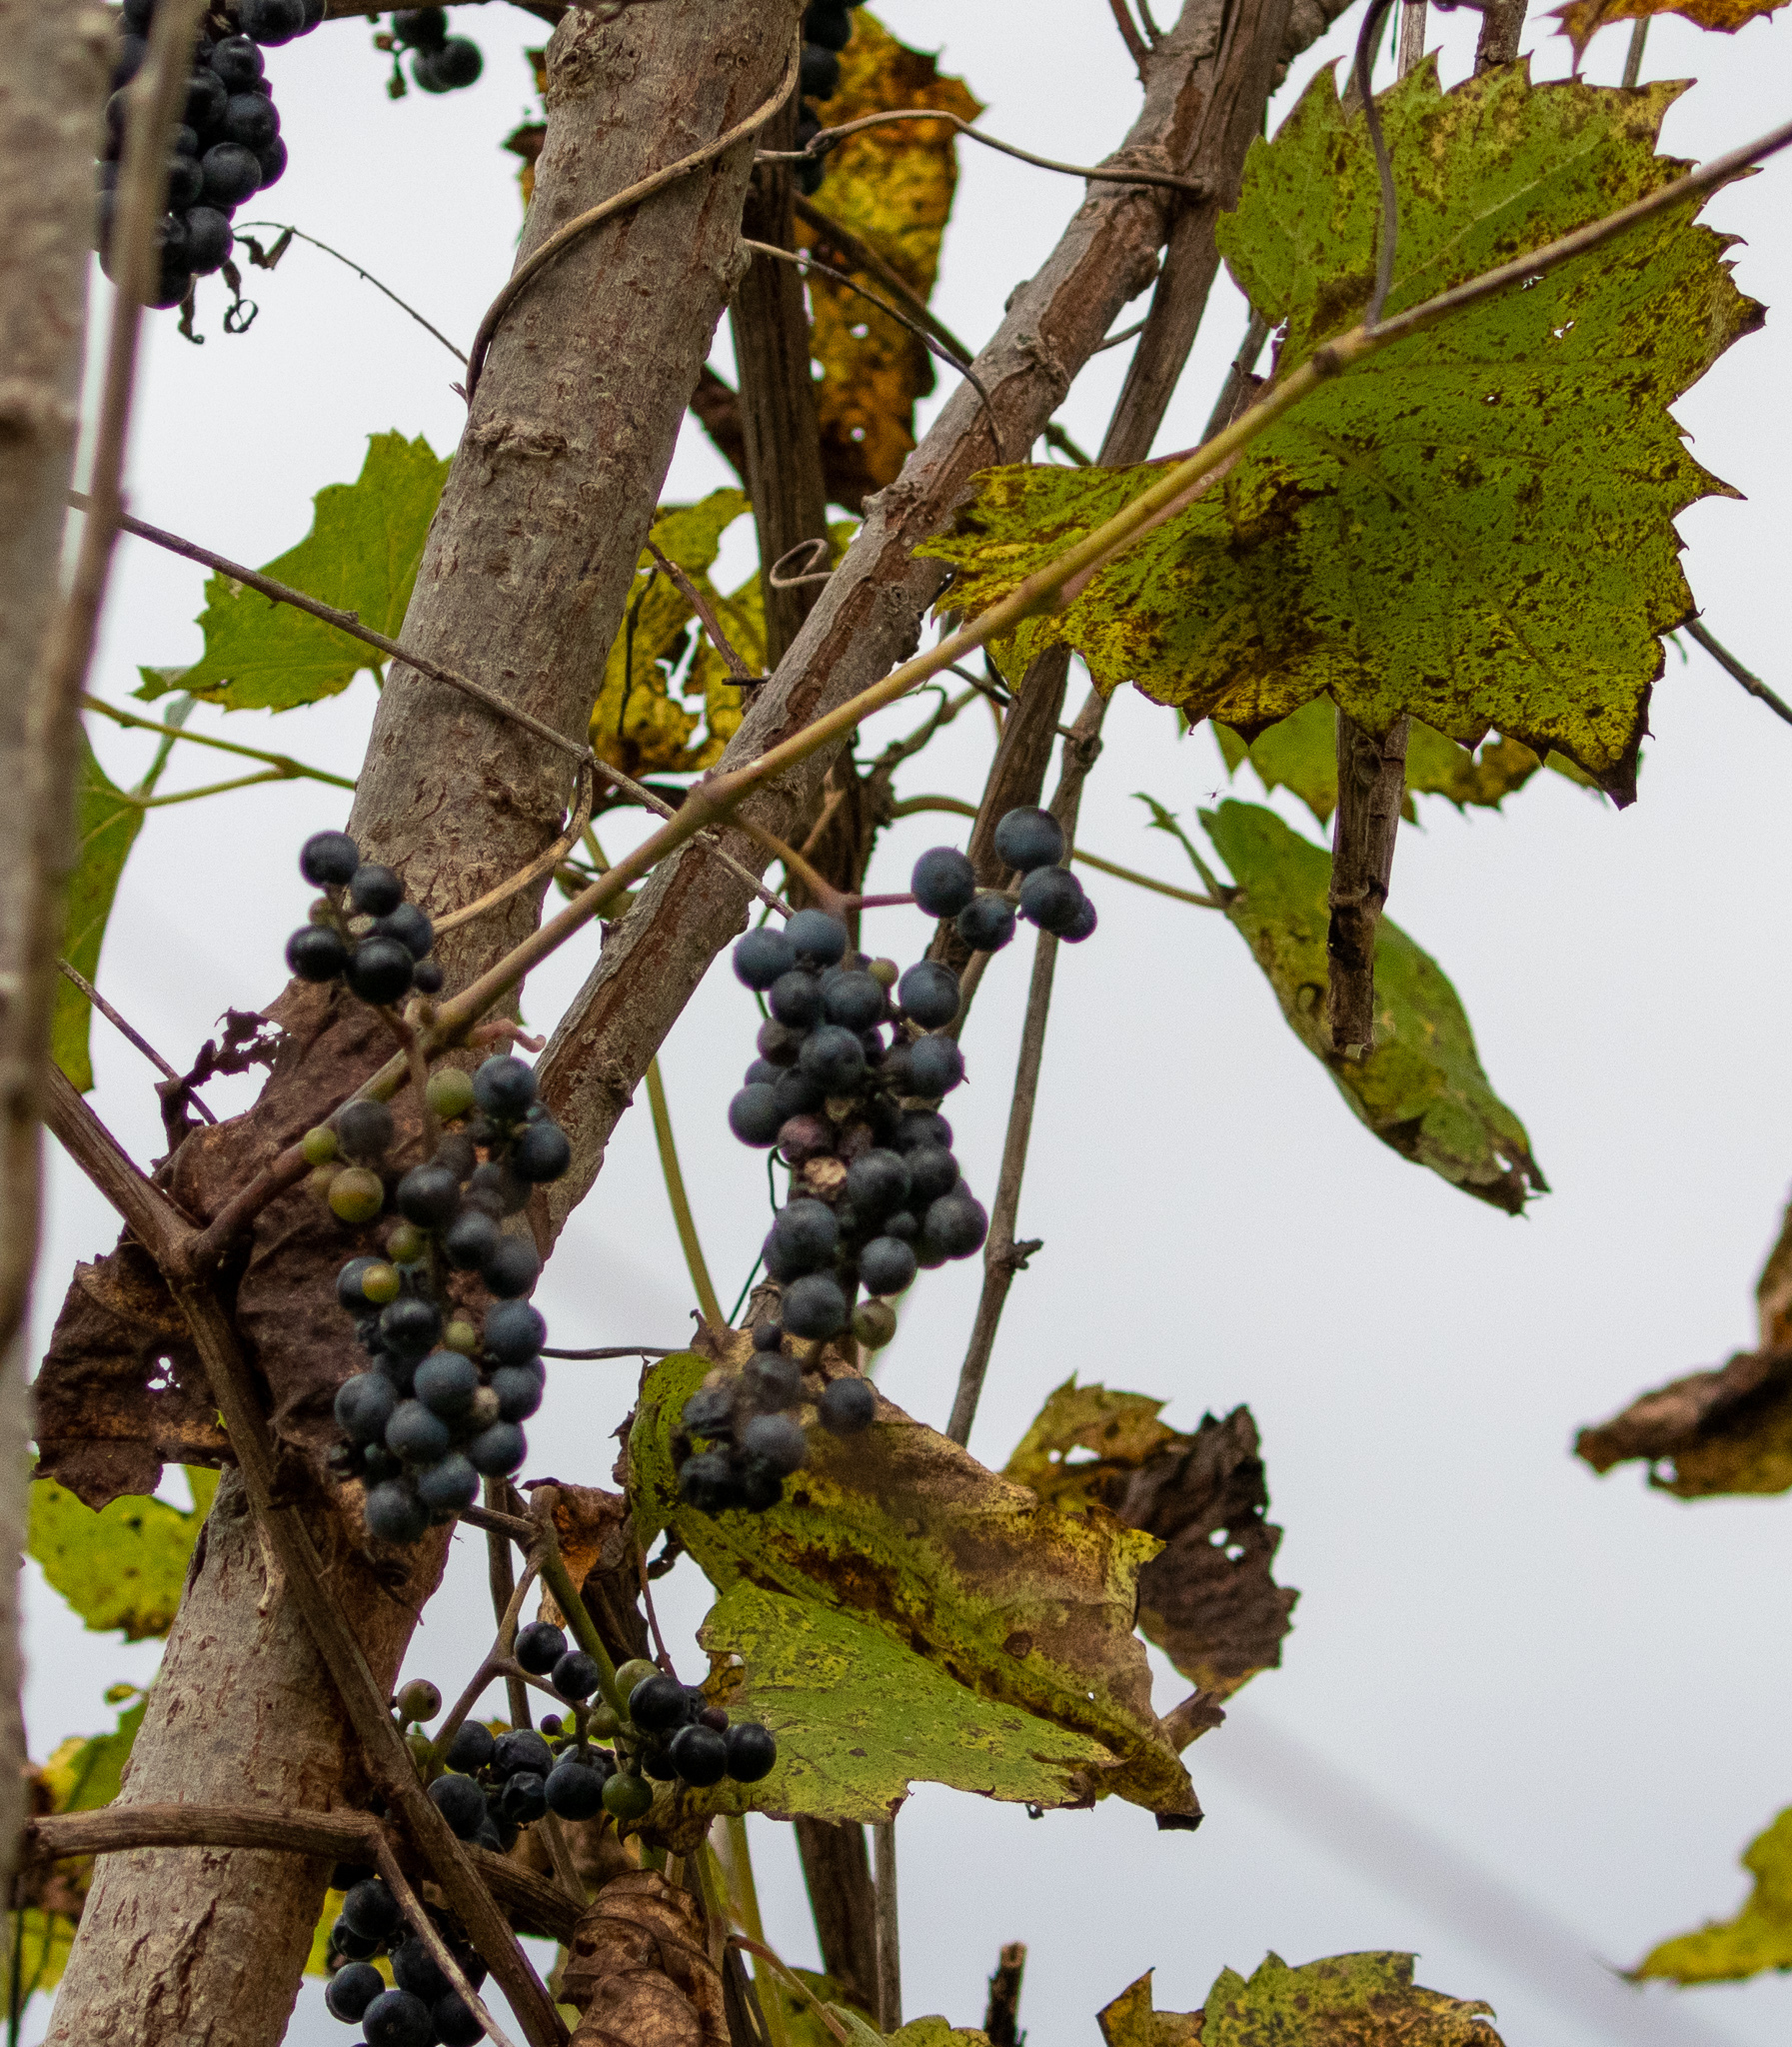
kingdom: Plantae
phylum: Tracheophyta
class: Magnoliopsida
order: Vitales
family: Vitaceae
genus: Vitis
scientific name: Vitis riparia
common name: Frost grape
